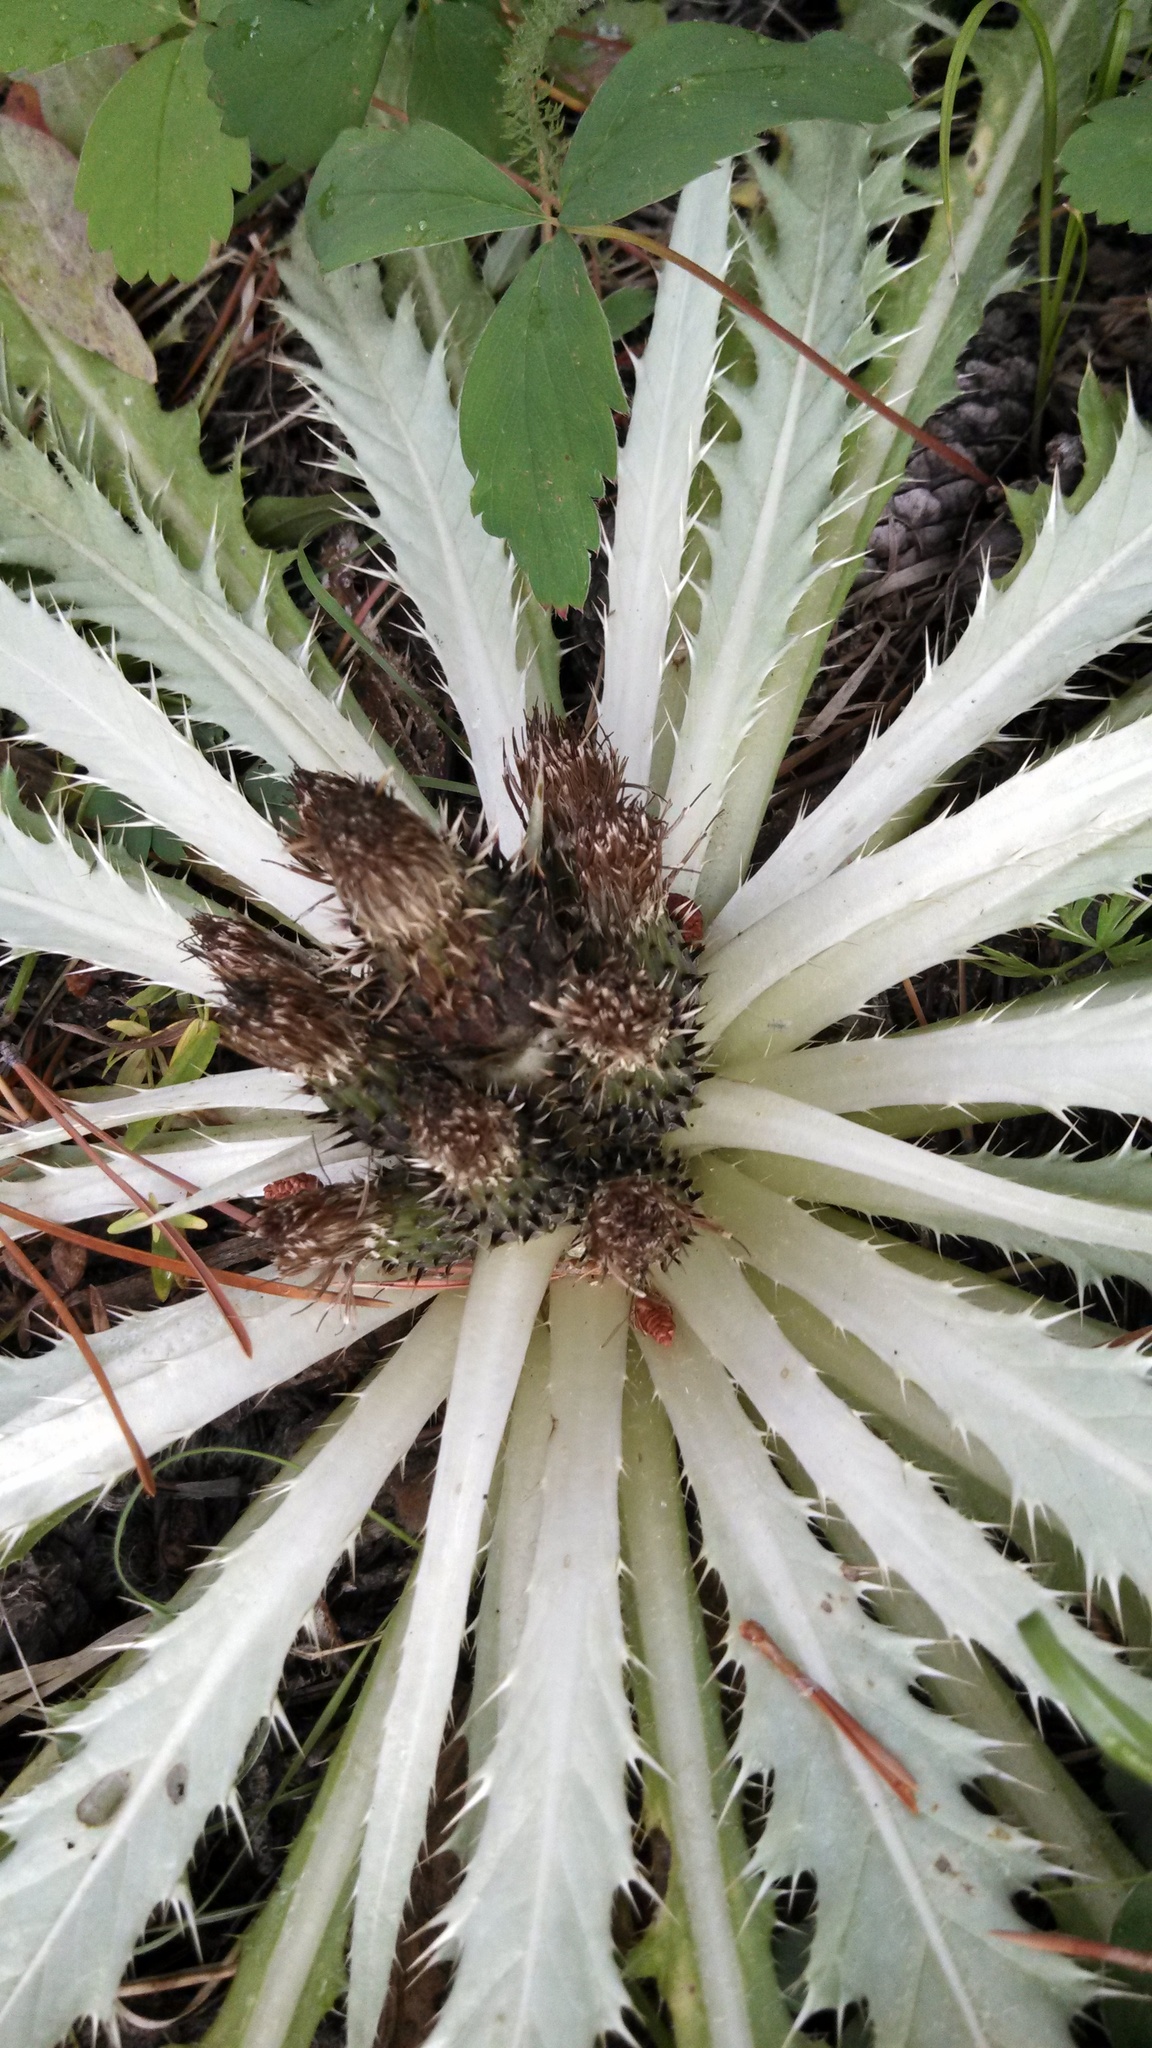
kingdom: Plantae
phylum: Tracheophyta
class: Magnoliopsida
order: Asterales
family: Asteraceae
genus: Cirsium
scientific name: Cirsium tioganum
